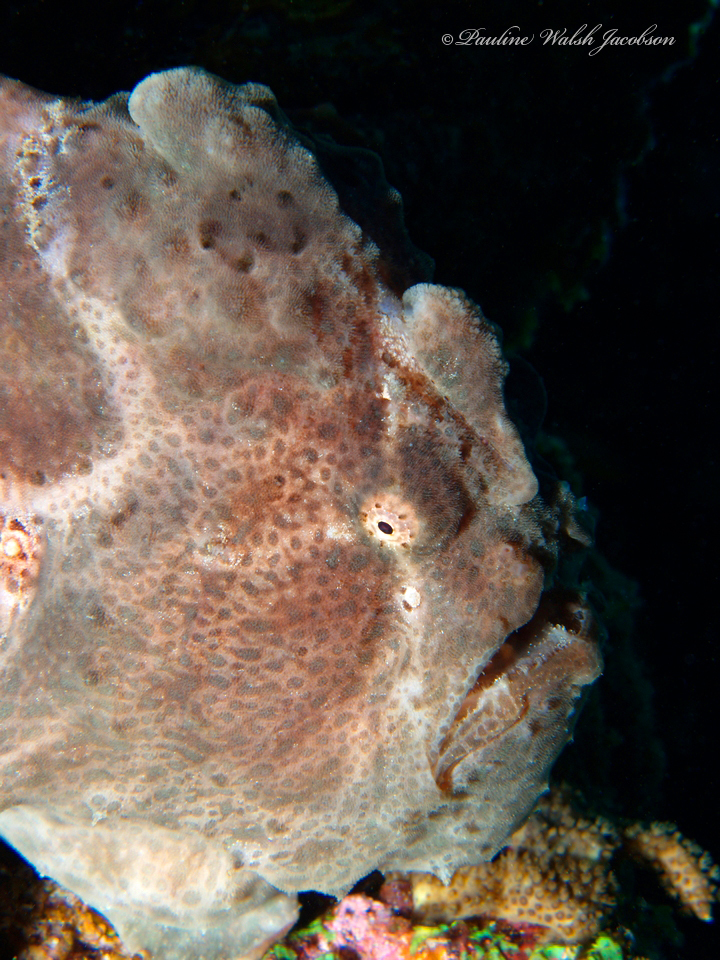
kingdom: Animalia
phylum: Chordata
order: Lophiiformes
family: Antennariidae
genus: Antennarius
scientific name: Antennarius commerson
